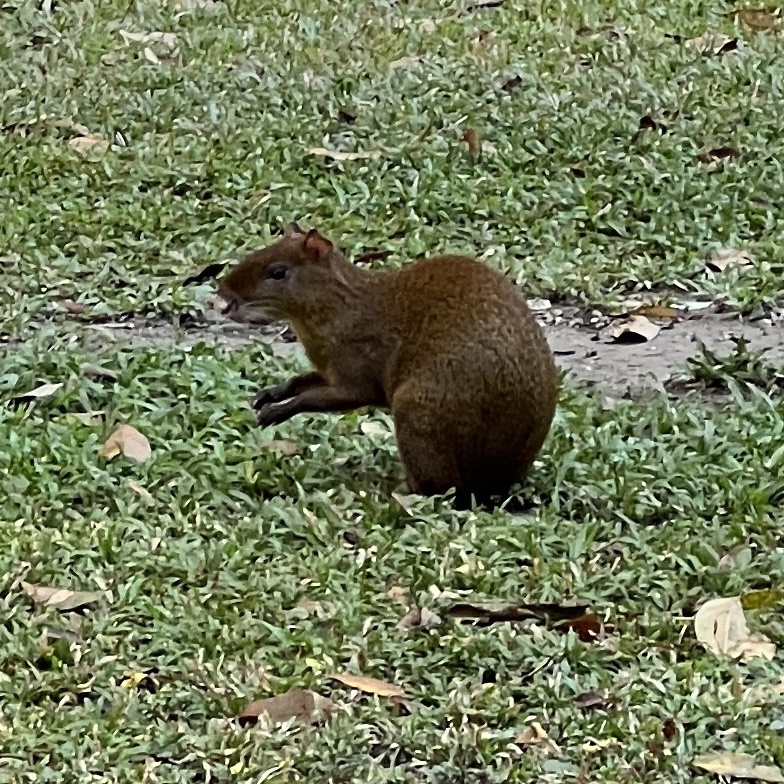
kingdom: Animalia
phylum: Chordata
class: Mammalia
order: Rodentia
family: Dasyproctidae
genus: Dasyprocta
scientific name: Dasyprocta punctata
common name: Central american agouti
